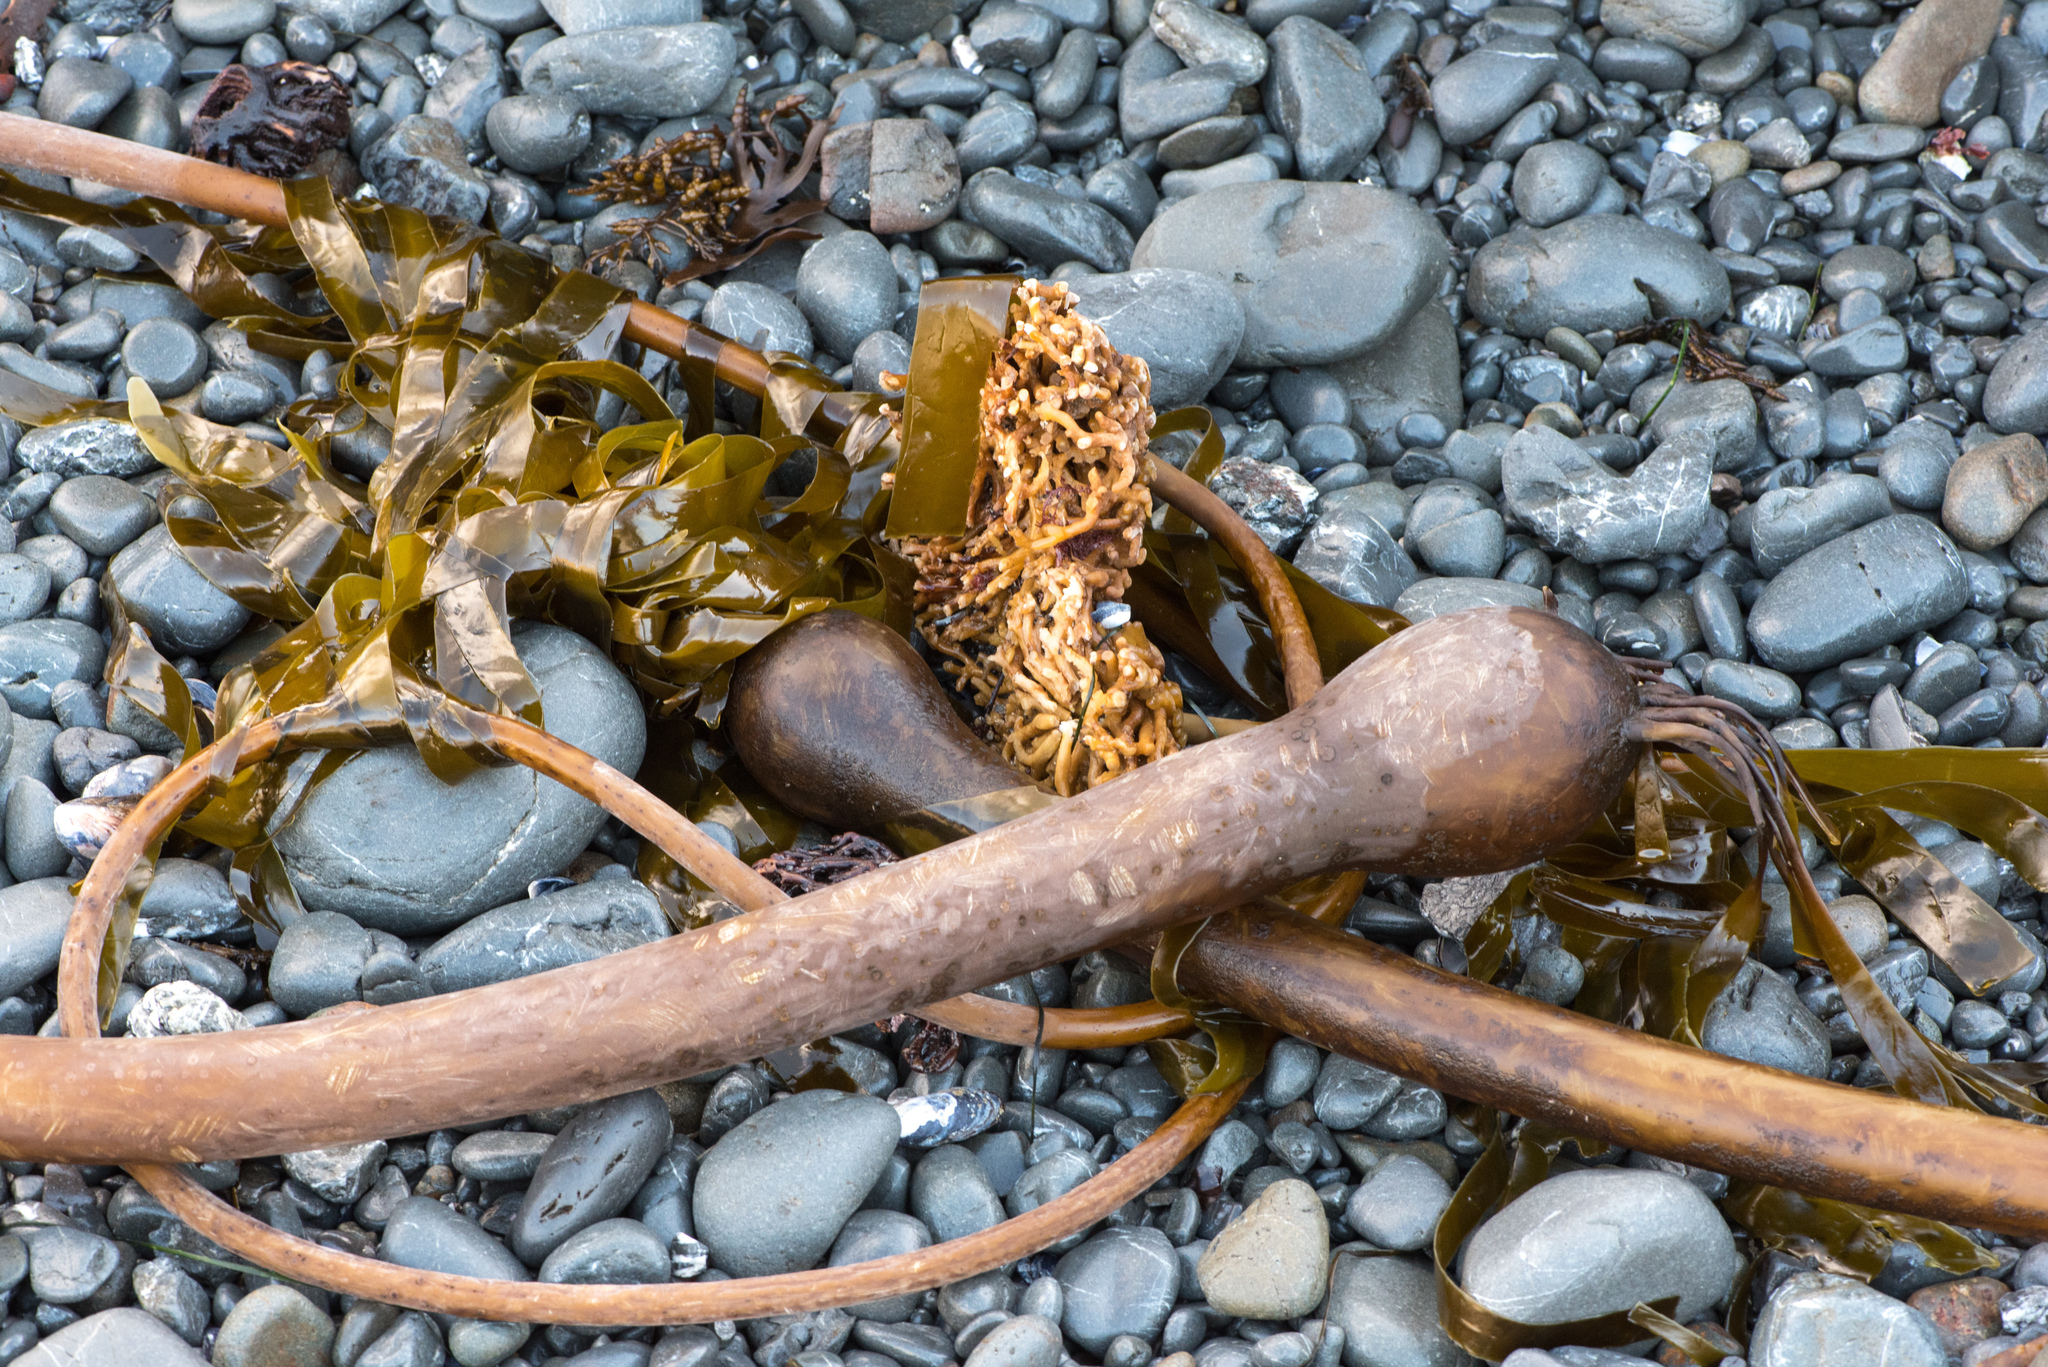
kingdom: Chromista
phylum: Ochrophyta
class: Phaeophyceae
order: Laminariales
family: Laminariaceae
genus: Nereocystis
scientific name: Nereocystis luetkeana
